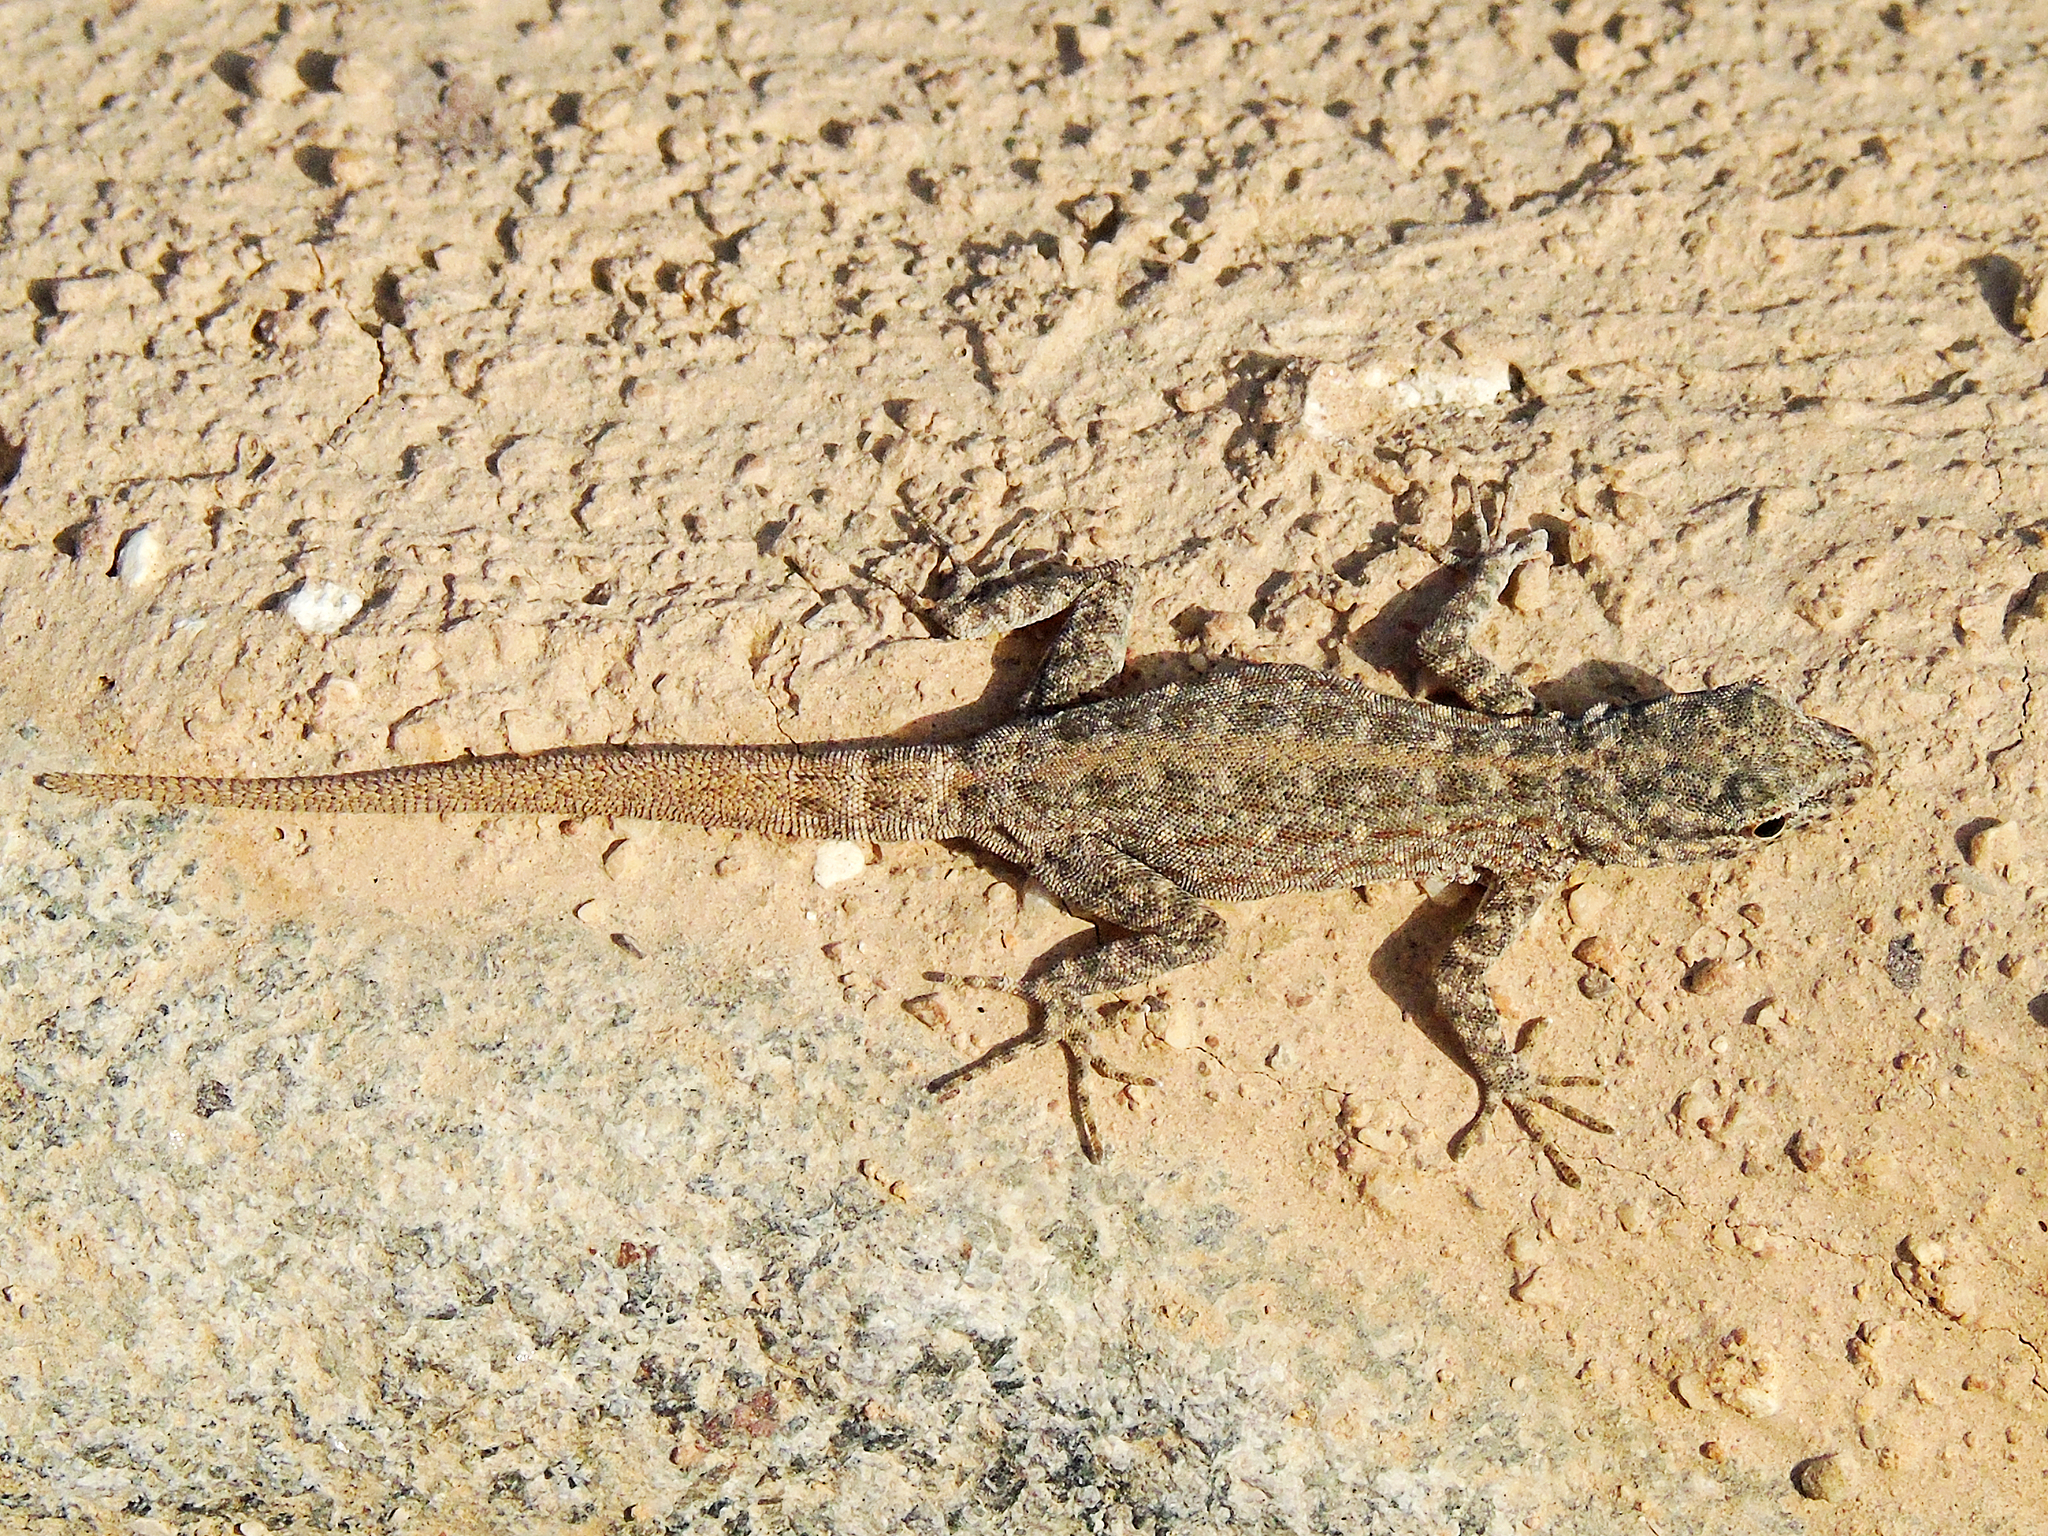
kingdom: Animalia
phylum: Chordata
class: Squamata
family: Sphaerodactylidae
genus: Pristurus
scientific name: Pristurus rupestris
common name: Blanford’s semaphore gecko
